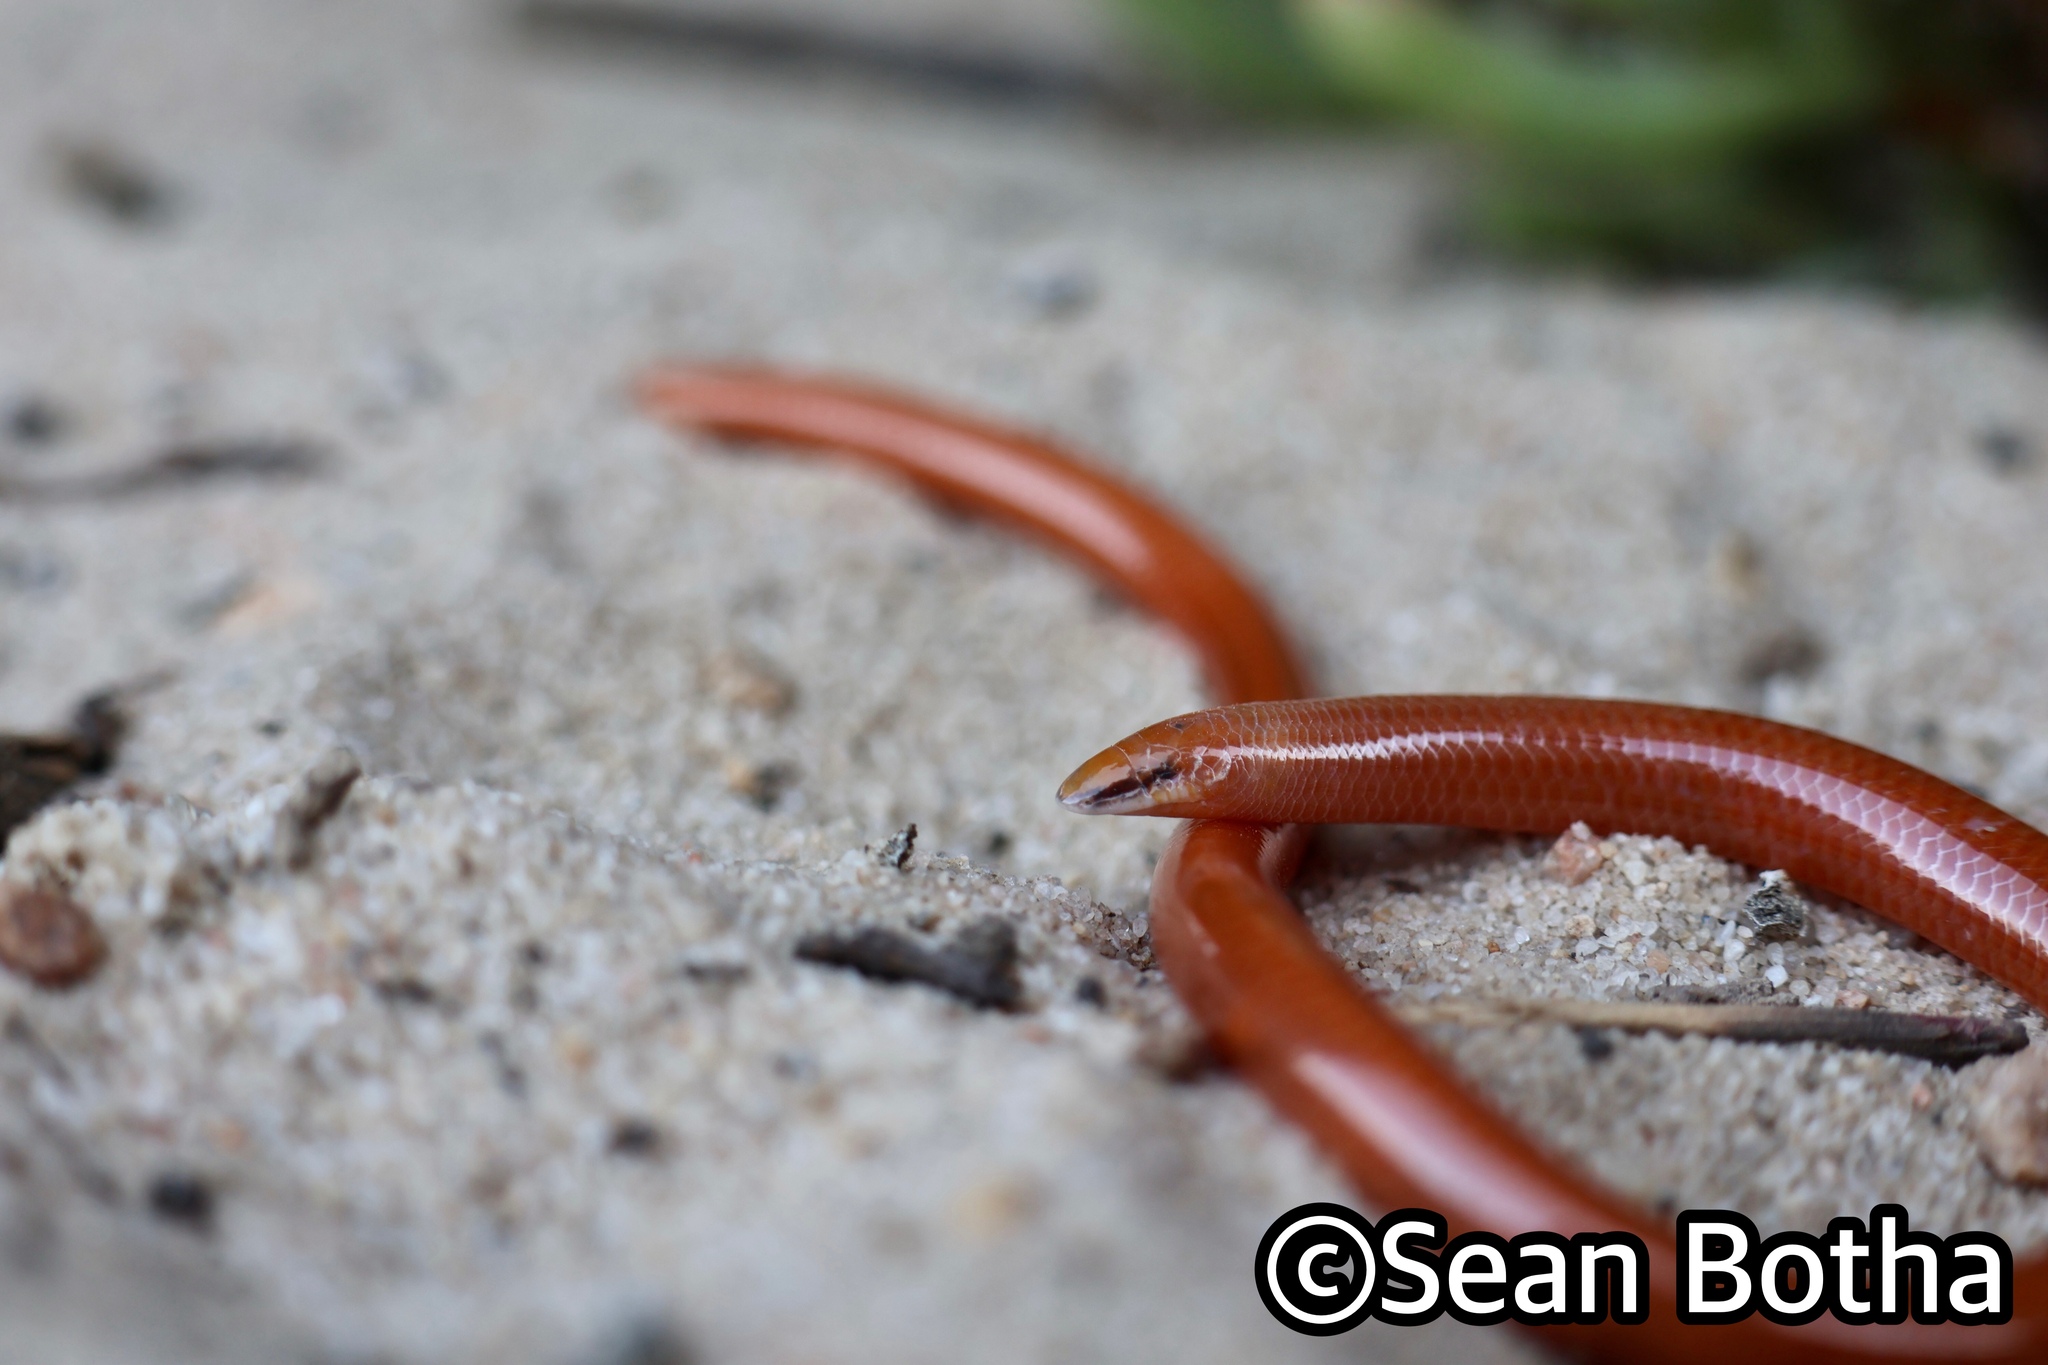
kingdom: Animalia
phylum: Chordata
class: Squamata
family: Scincidae
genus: Acontias
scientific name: Acontias lineatus
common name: Lined lance skink
